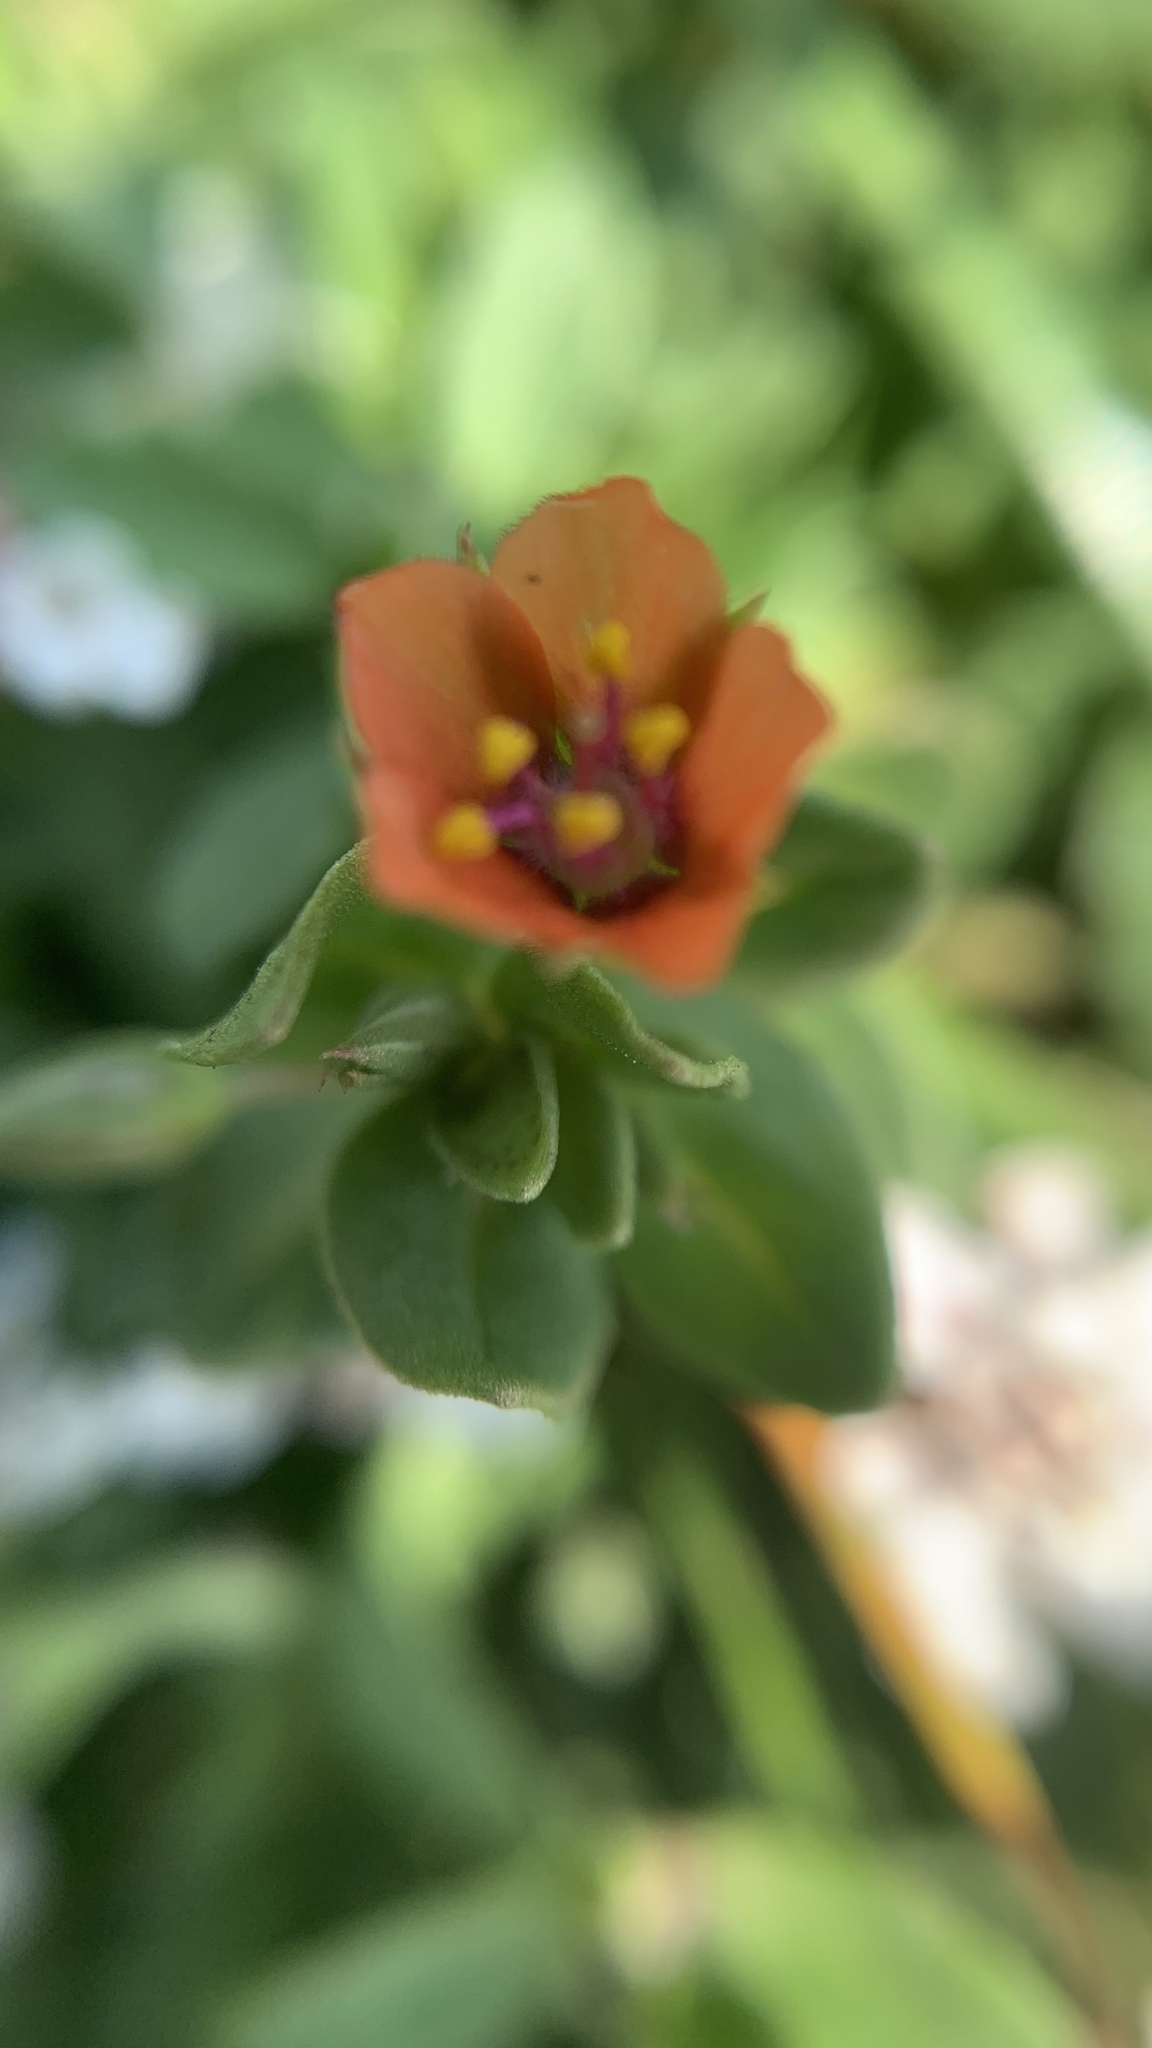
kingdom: Plantae
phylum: Tracheophyta
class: Magnoliopsida
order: Ericales
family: Primulaceae
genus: Lysimachia
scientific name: Lysimachia arvensis
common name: Scarlet pimpernel
